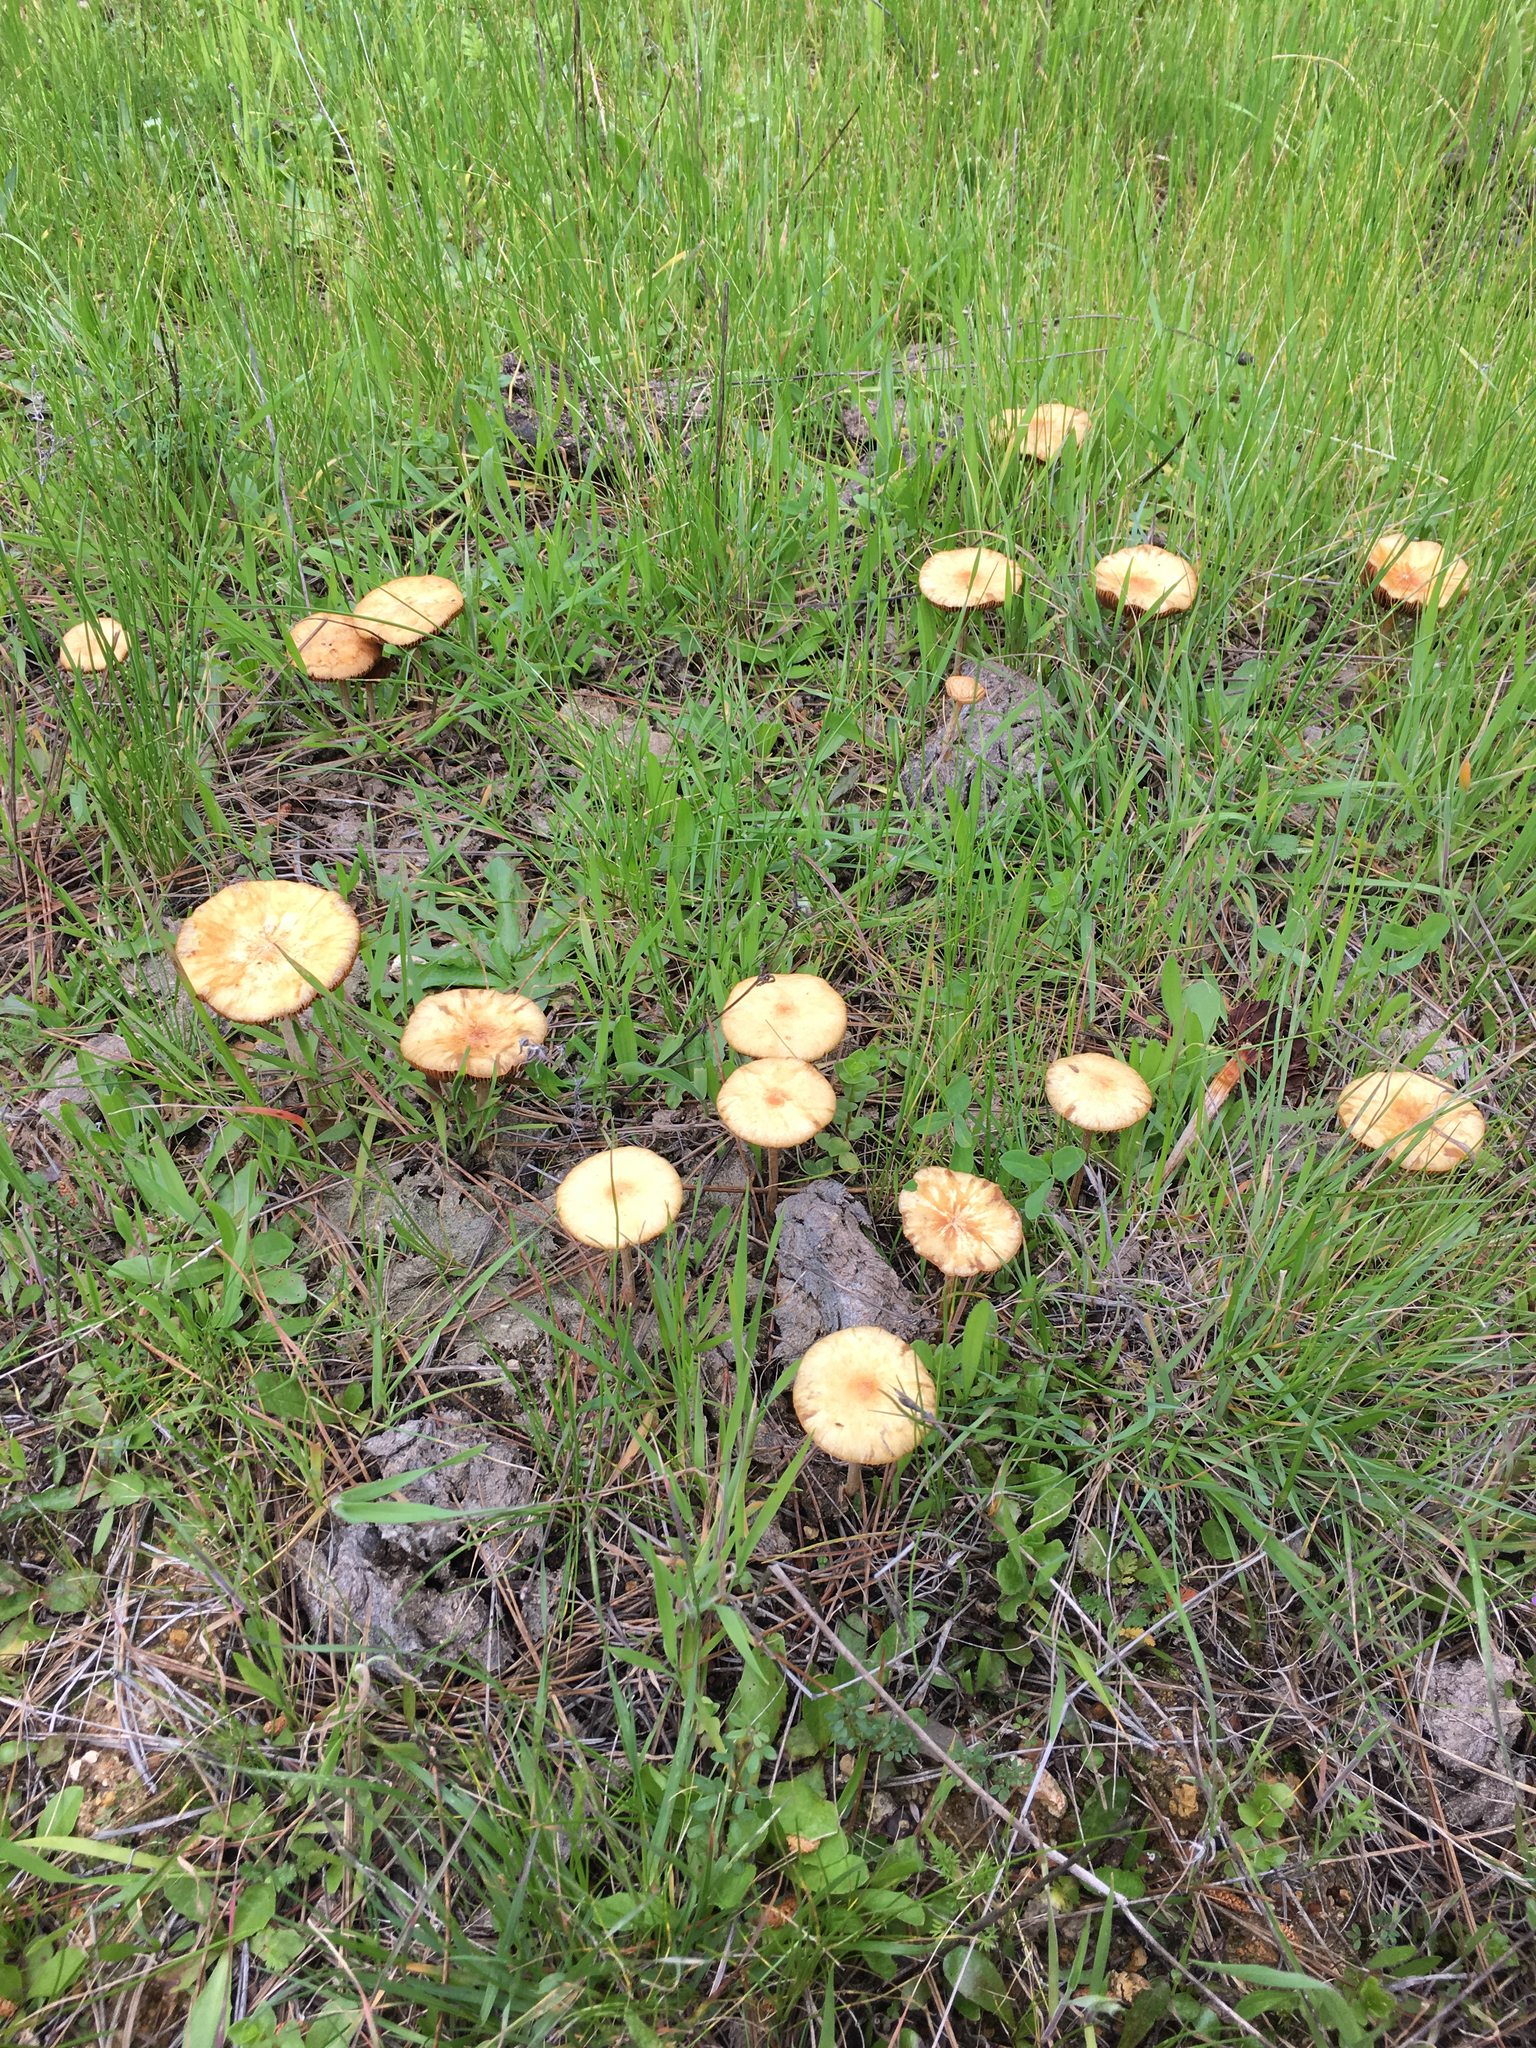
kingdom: Fungi
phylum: Basidiomycota
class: Agaricomycetes
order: Agaricales
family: Strophariaceae
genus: Agrocybe
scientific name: Agrocybe pediades
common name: Common fieldcap
